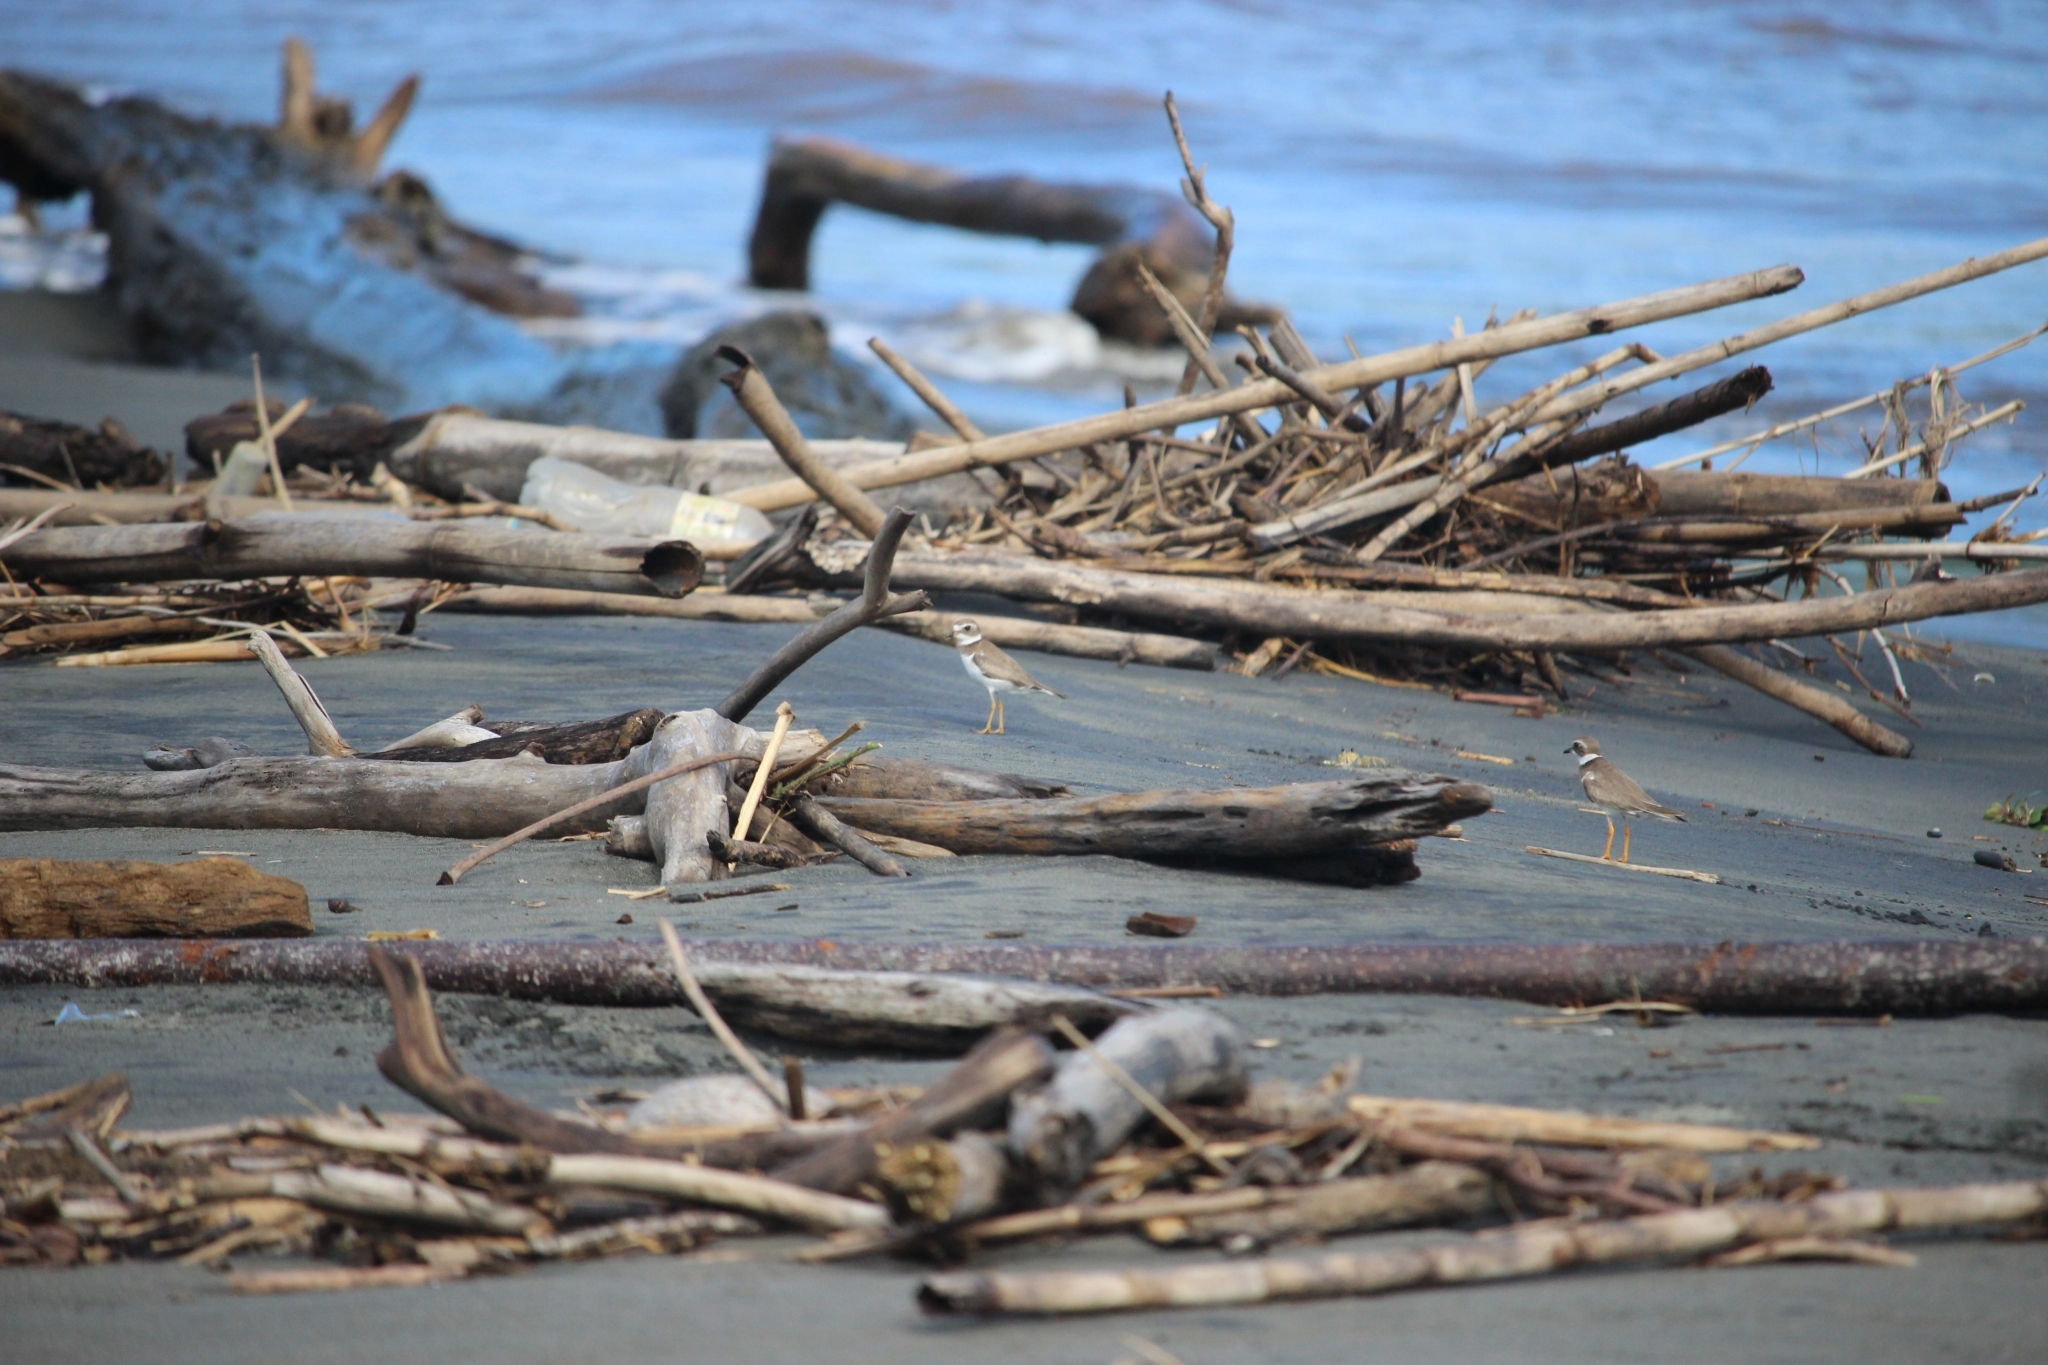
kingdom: Animalia
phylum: Chordata
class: Aves
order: Charadriiformes
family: Charadriidae
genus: Anarhynchus
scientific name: Anarhynchus
